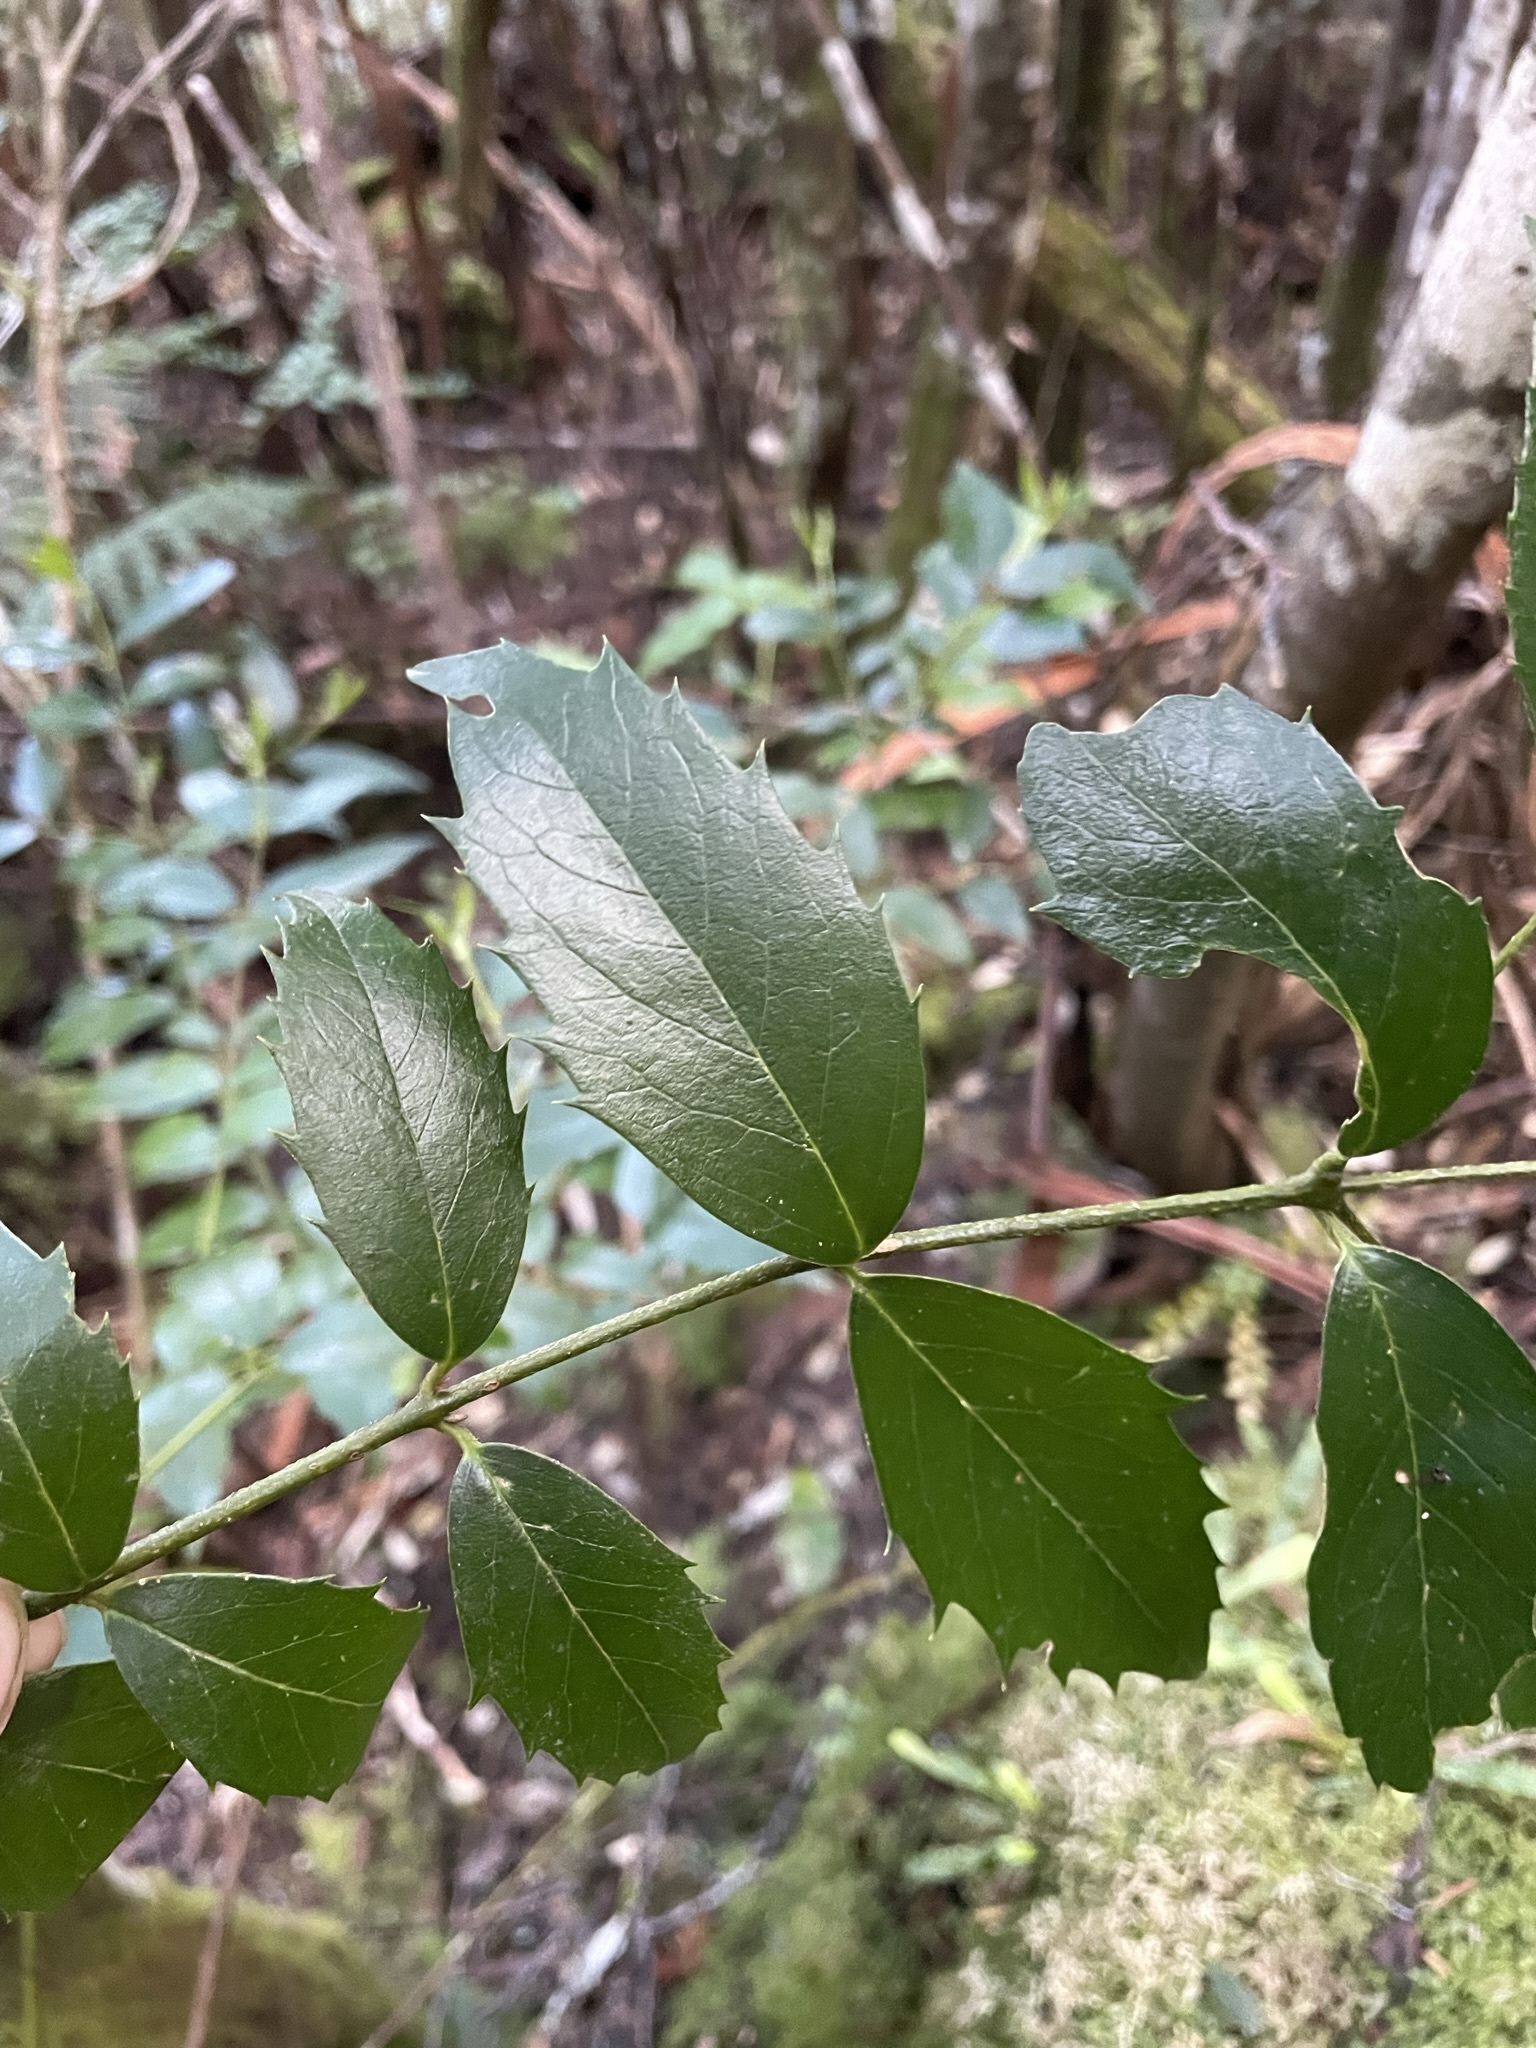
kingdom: Plantae
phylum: Tracheophyta
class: Magnoliopsida
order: Laurales
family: Atherospermataceae
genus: Atherosperma
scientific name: Atherosperma moschatum
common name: Tasmanian-sassafras
